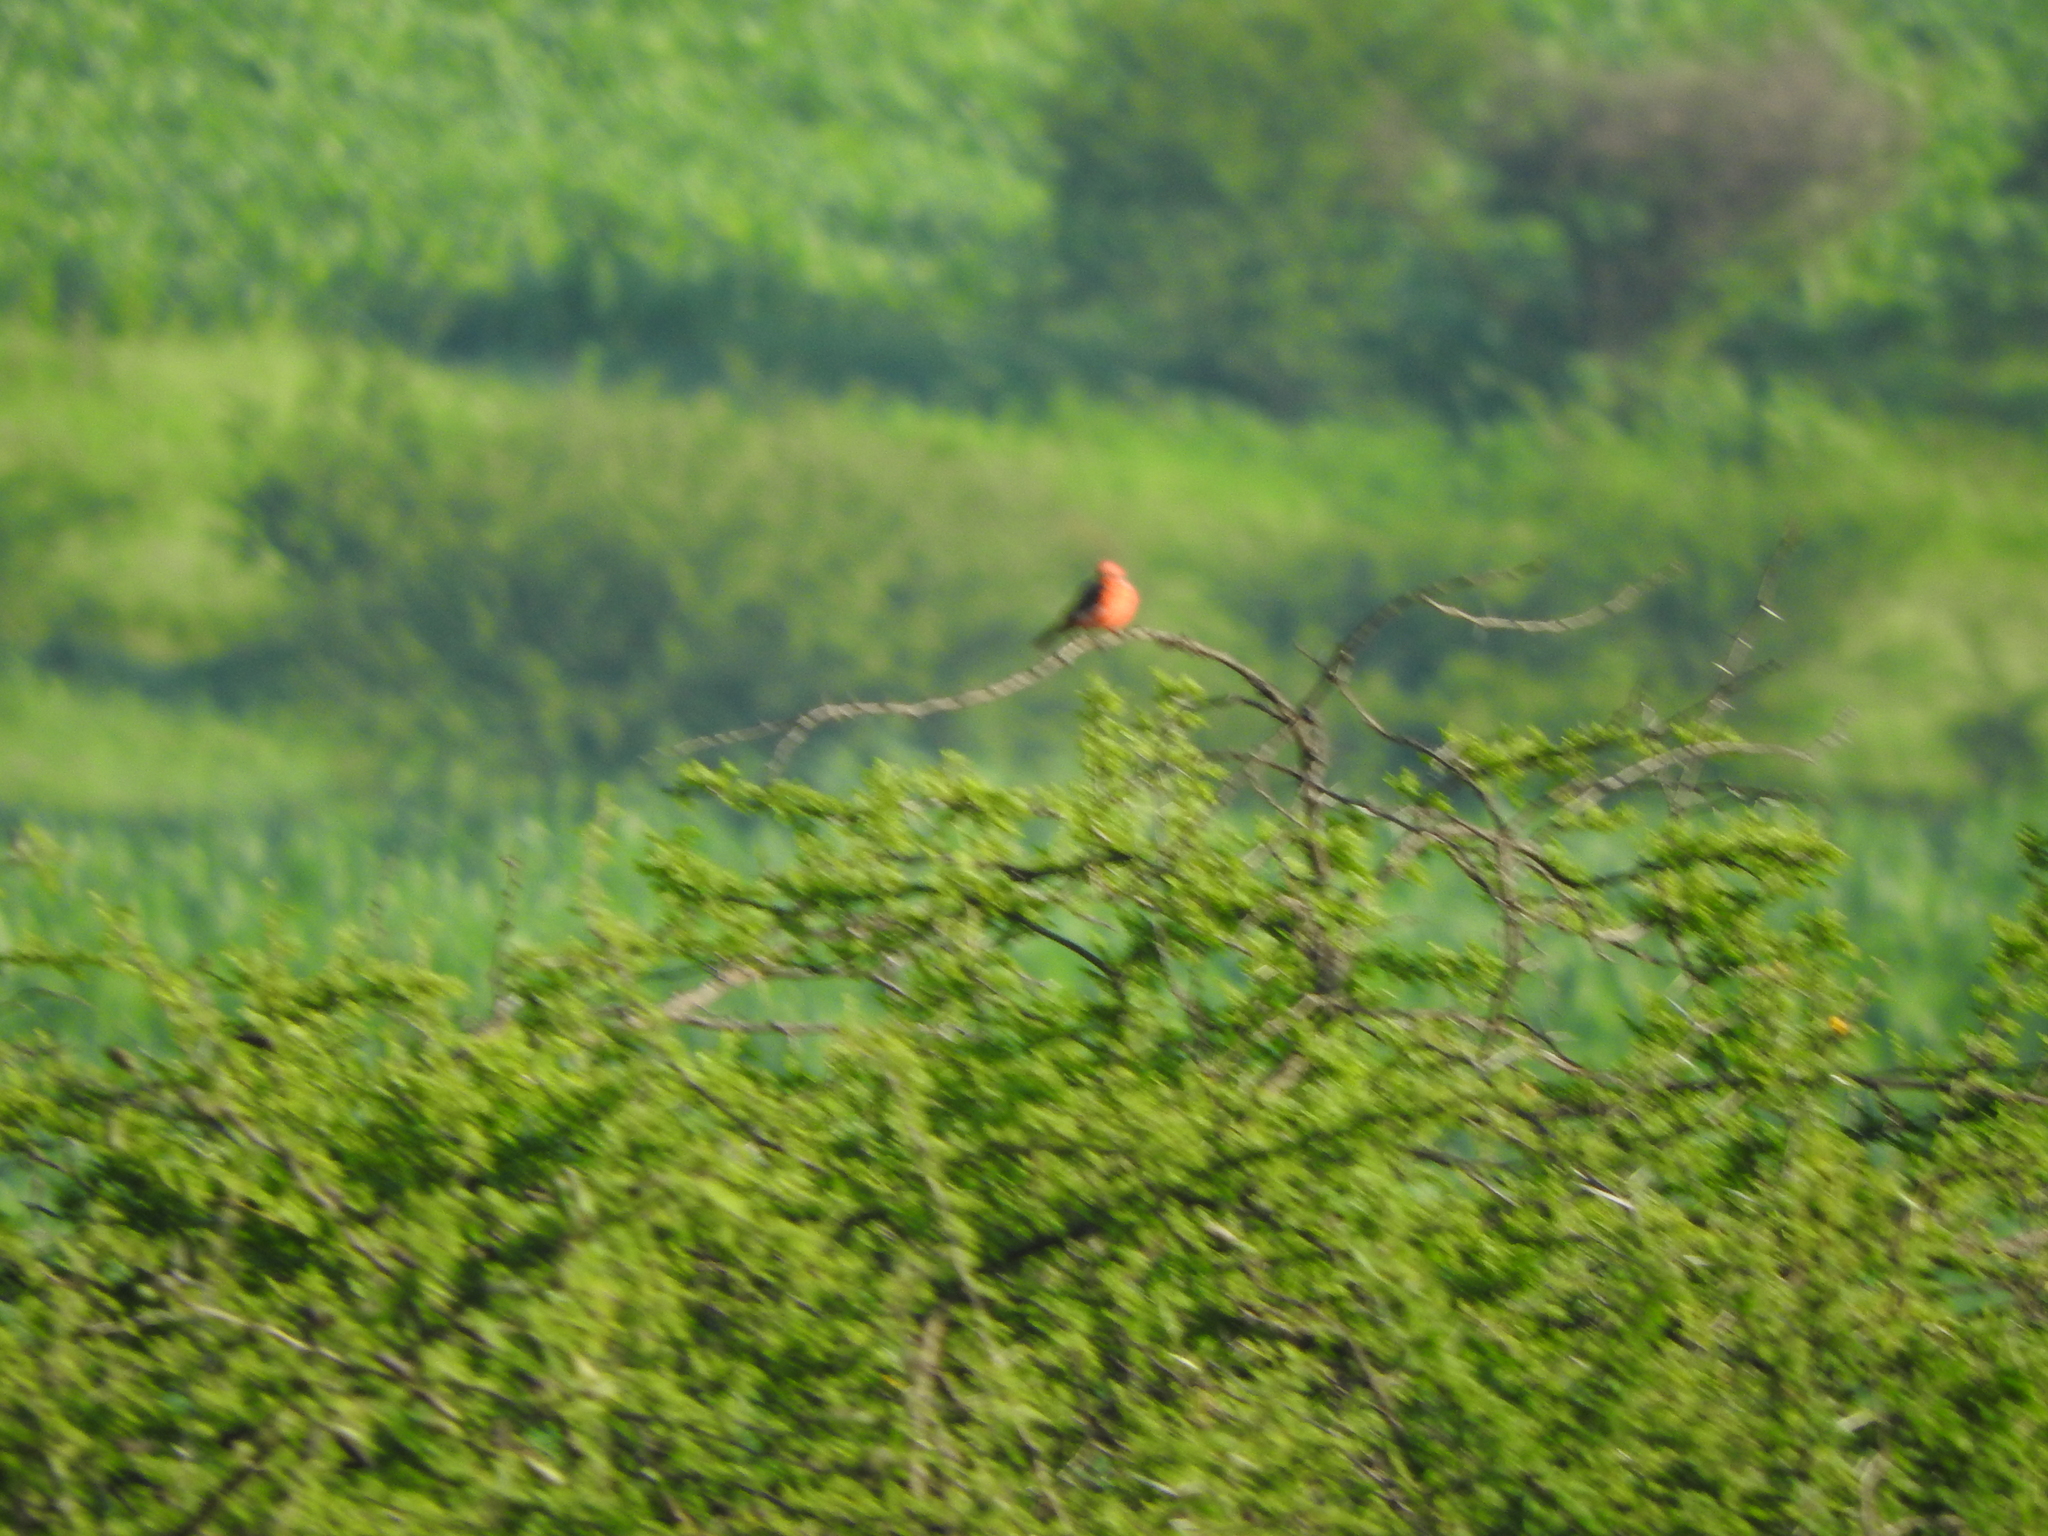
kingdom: Animalia
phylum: Chordata
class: Aves
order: Passeriformes
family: Tyrannidae
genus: Pyrocephalus
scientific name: Pyrocephalus rubinus
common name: Vermilion flycatcher
